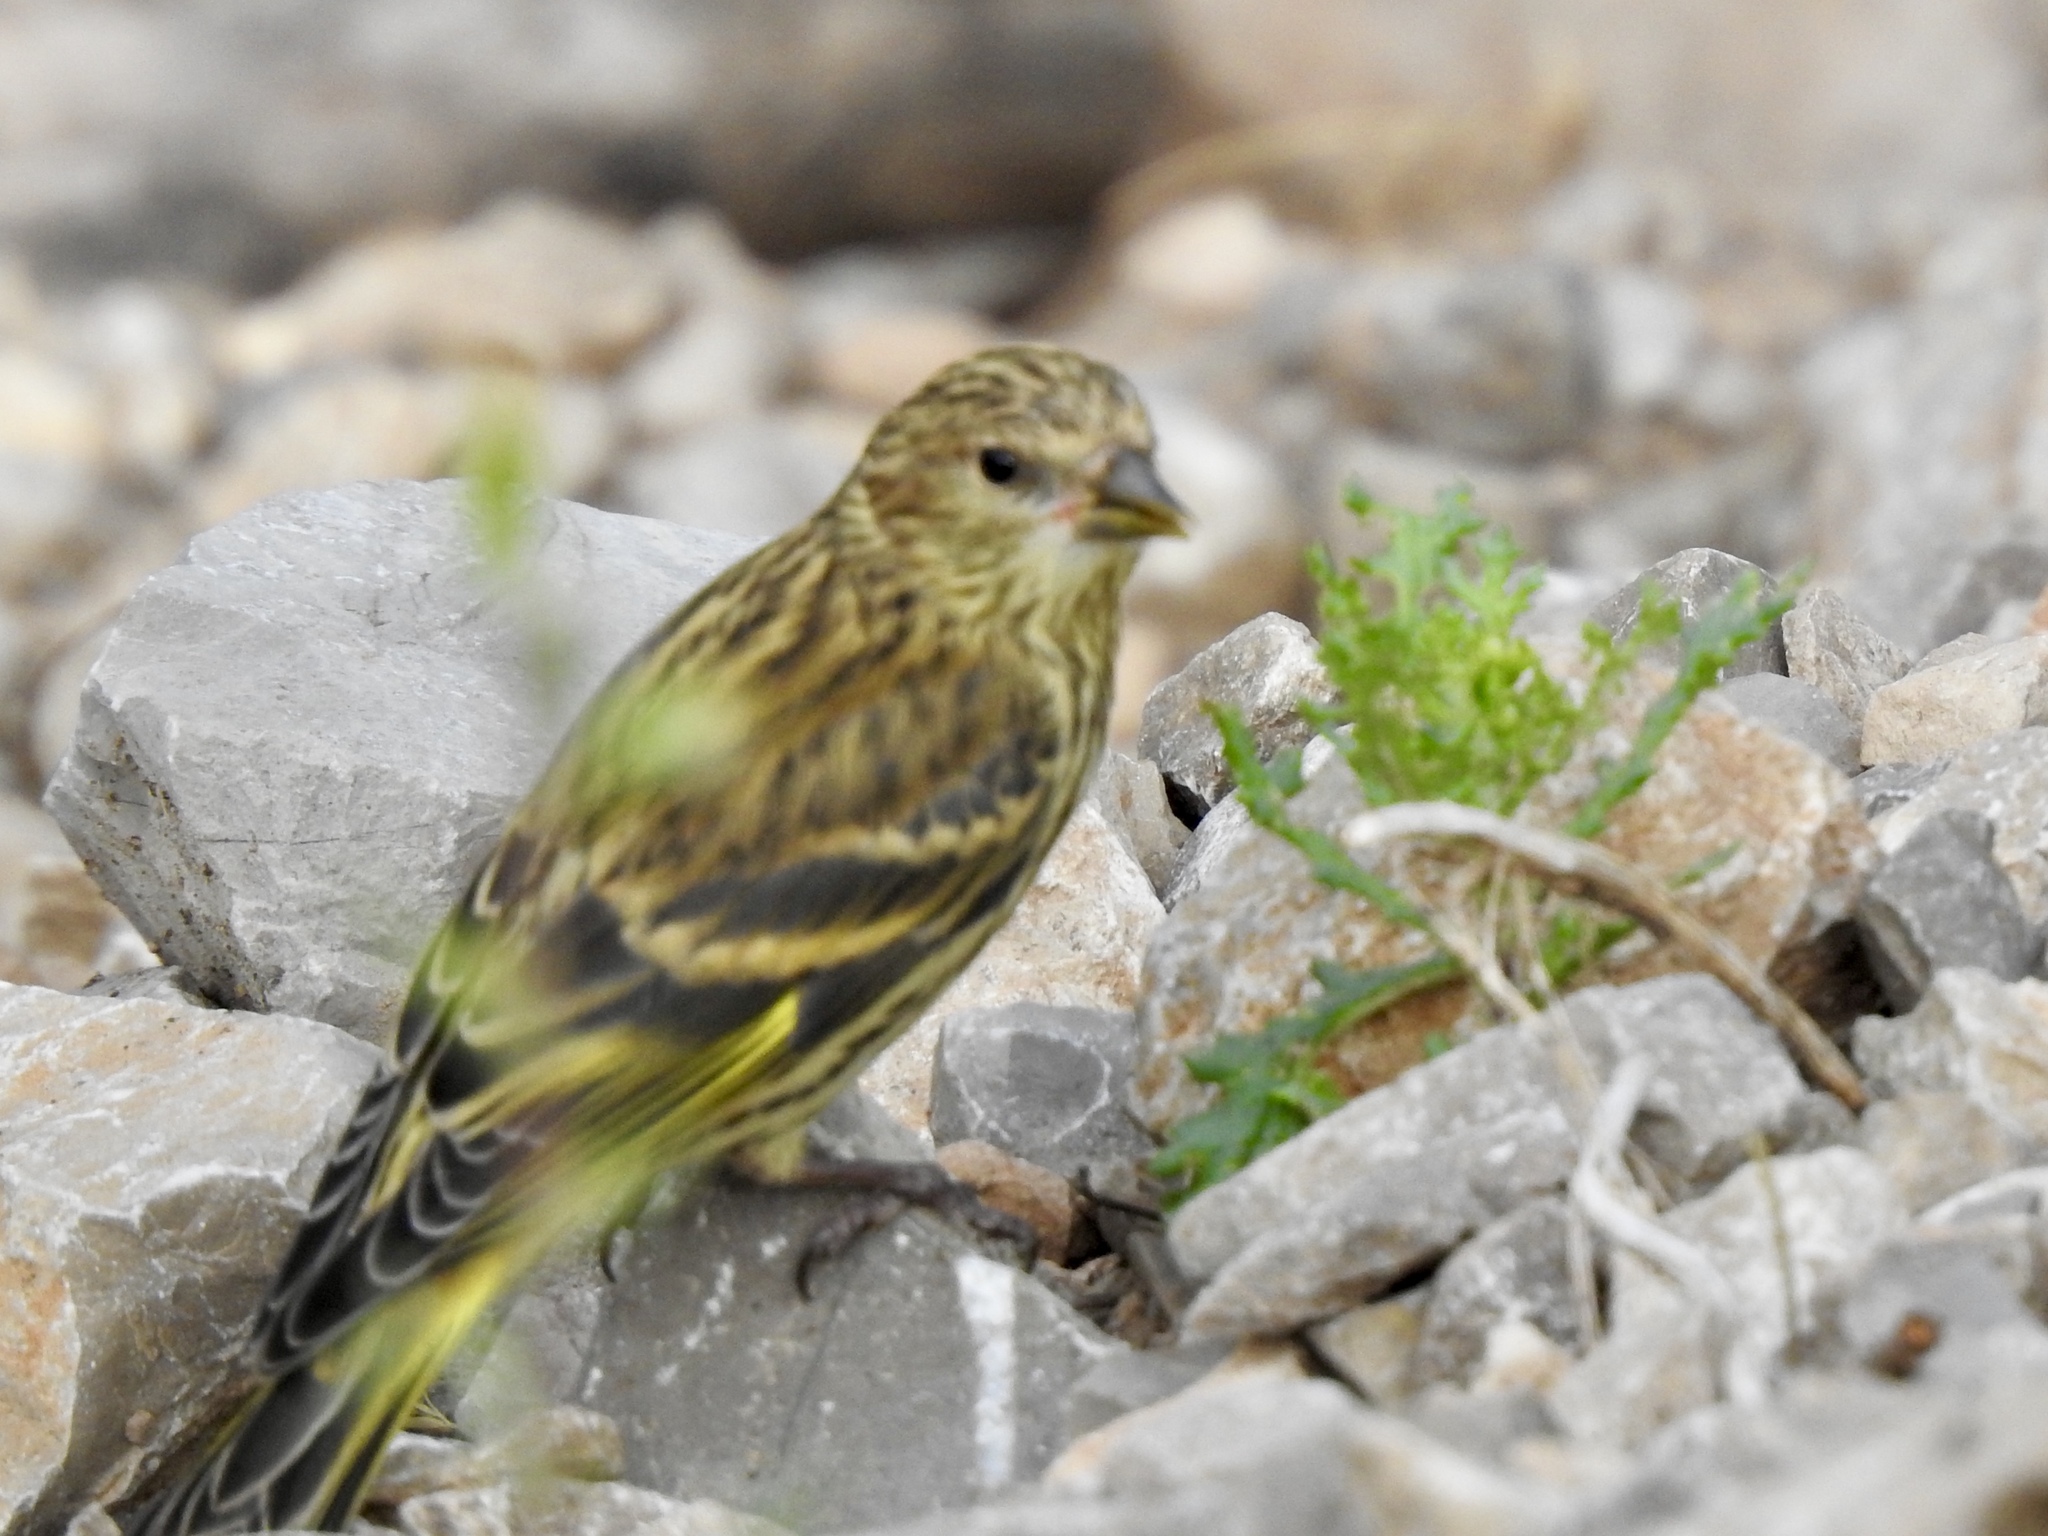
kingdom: Animalia
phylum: Chordata
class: Aves
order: Passeriformes
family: Fringillidae
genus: Spinus
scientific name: Spinus pinus
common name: Pine siskin
